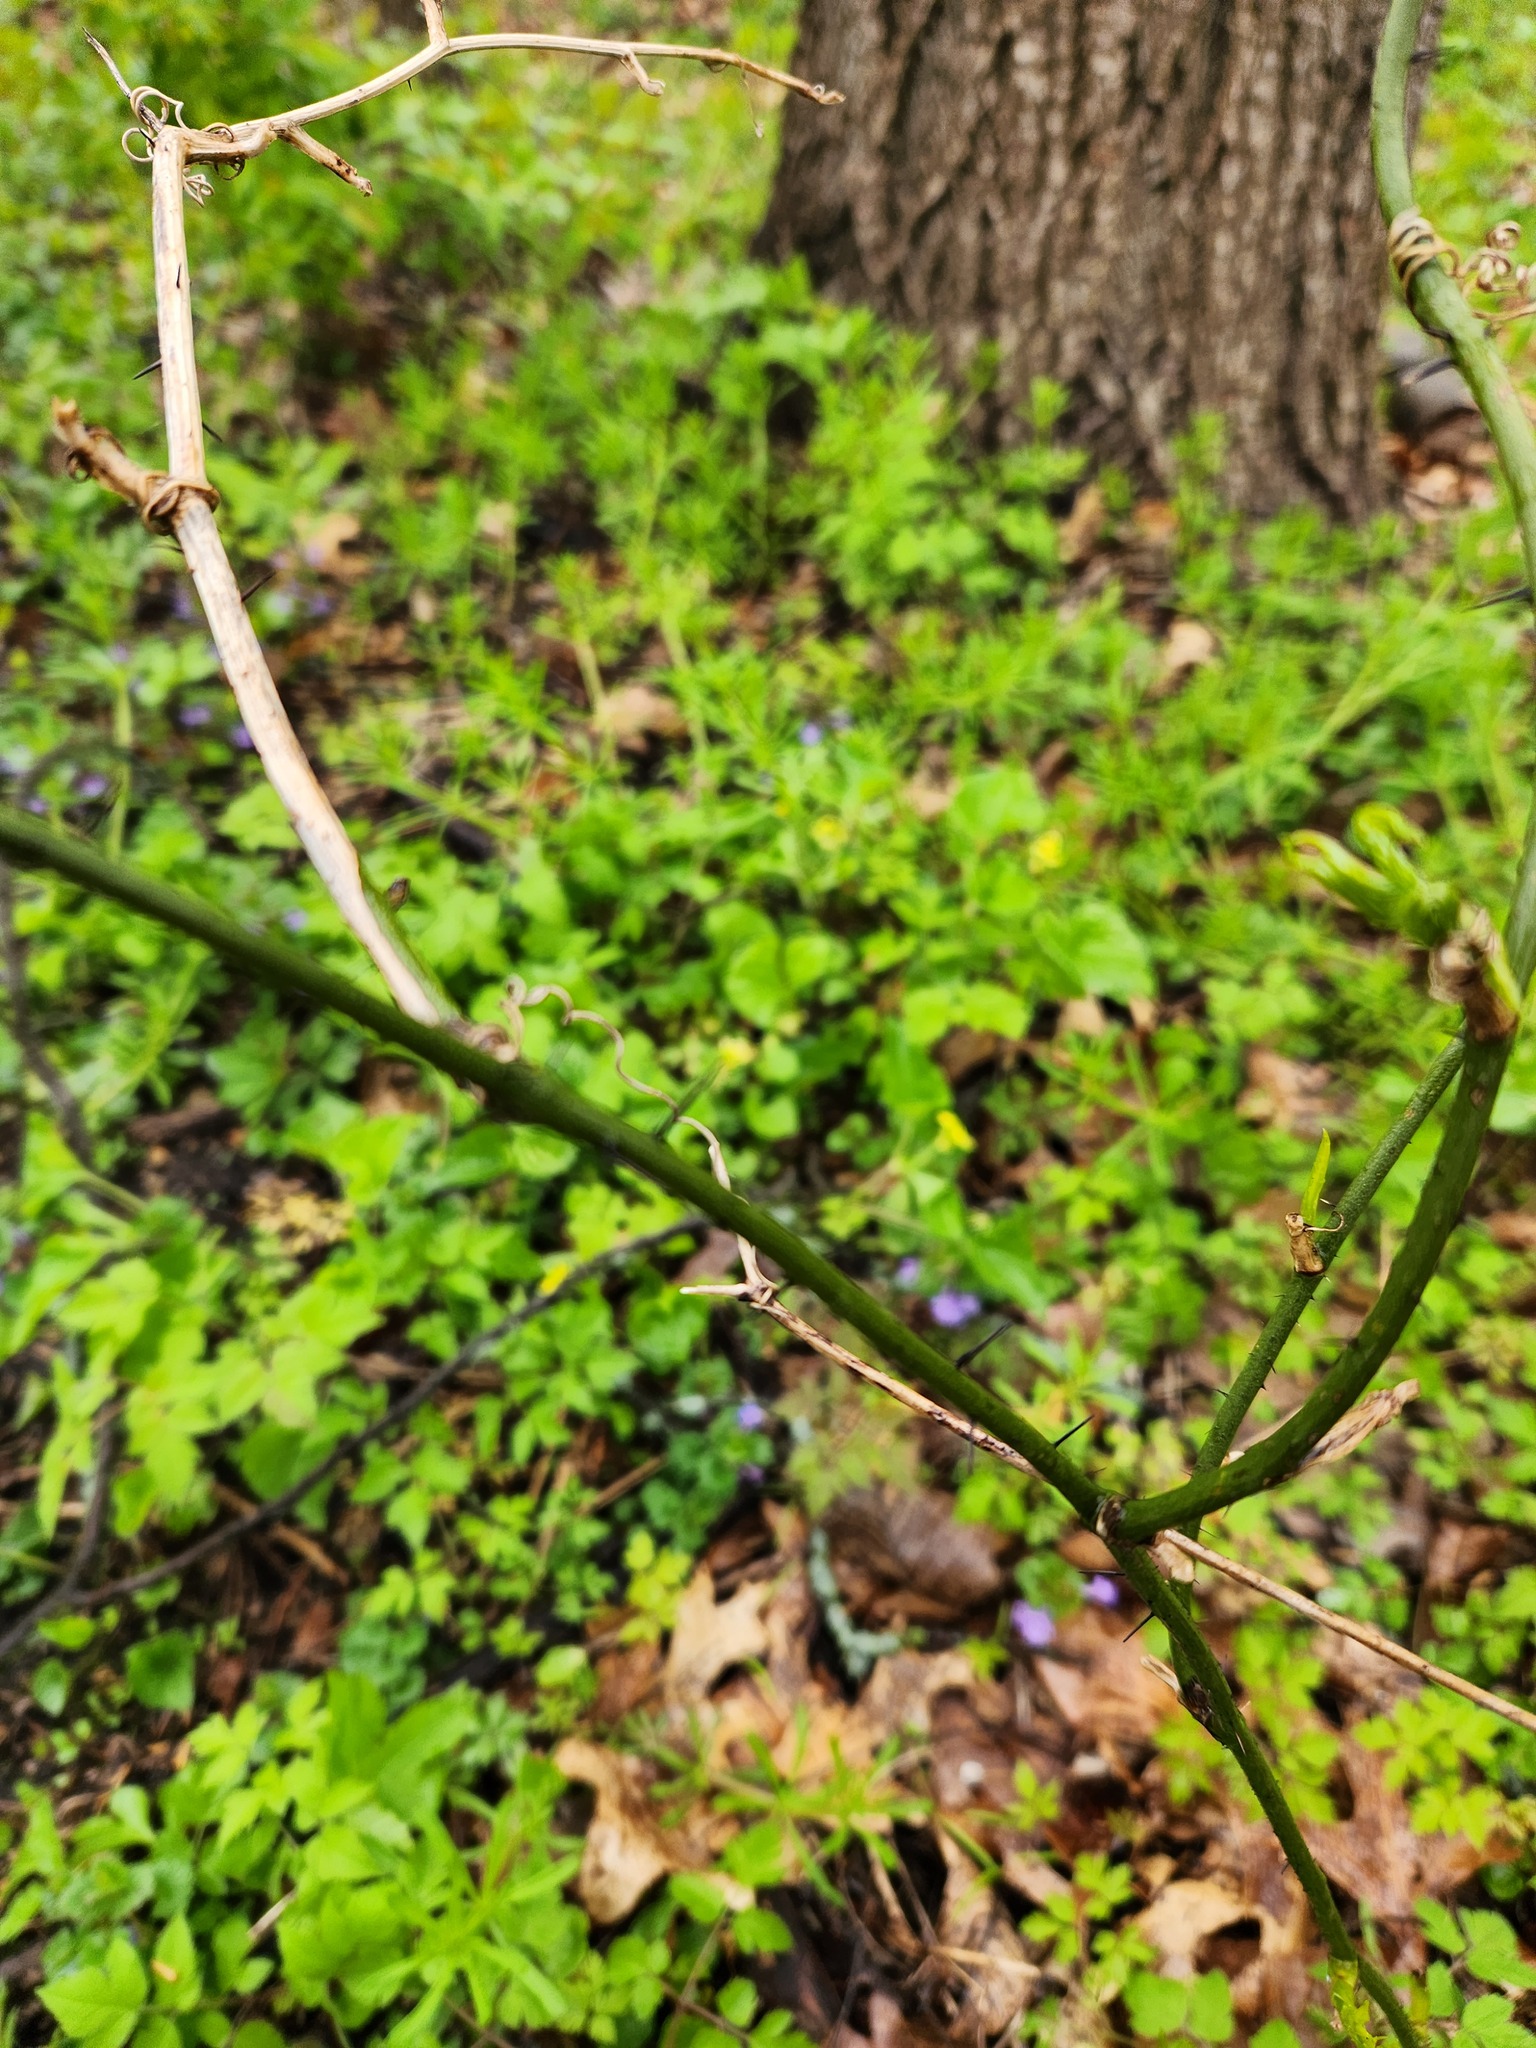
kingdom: Plantae
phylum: Tracheophyta
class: Liliopsida
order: Liliales
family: Smilacaceae
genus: Smilax
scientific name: Smilax tamnoides
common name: Hellfetter
